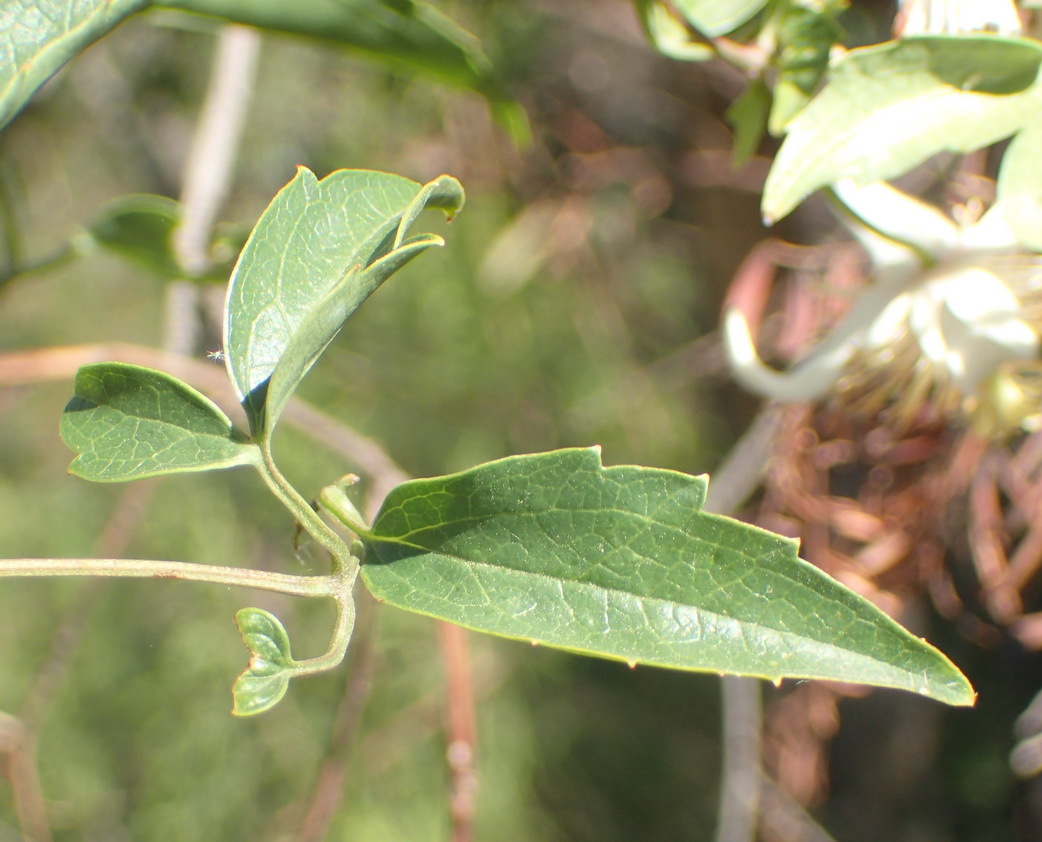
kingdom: Plantae
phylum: Tracheophyta
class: Magnoliopsida
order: Ranunculales
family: Ranunculaceae
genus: Clematis
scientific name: Clematis brachiata
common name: Traveler's-joy
